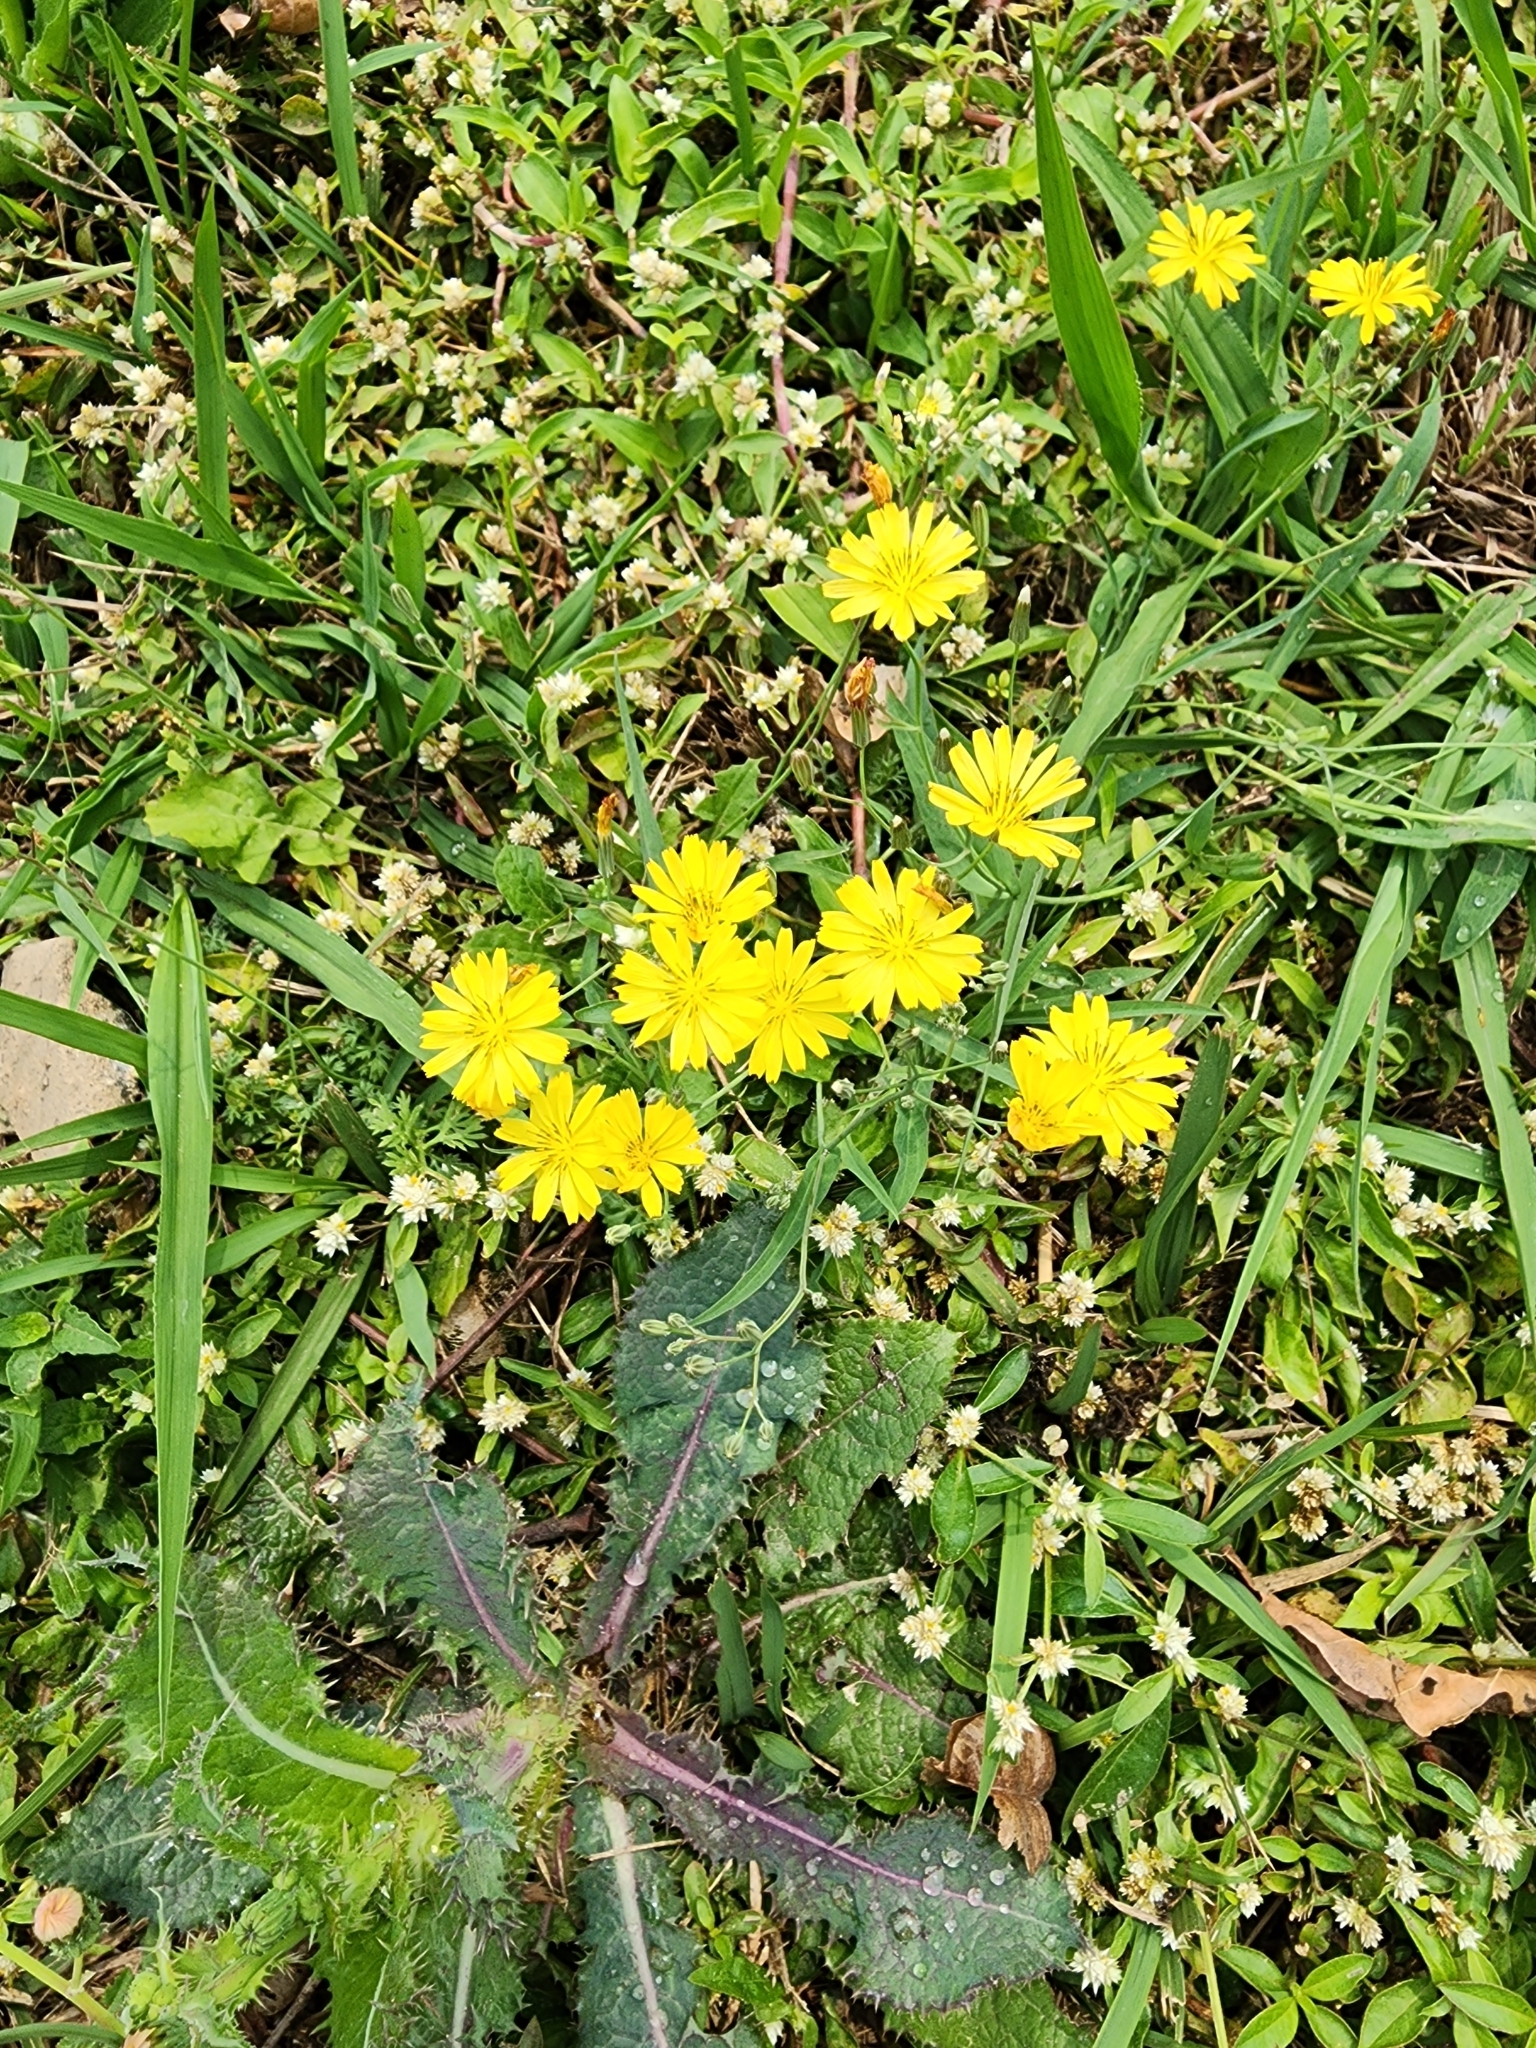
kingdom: Plantae
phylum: Tracheophyta
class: Magnoliopsida
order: Asterales
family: Asteraceae
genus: Ixeris
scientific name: Ixeris chinensis
